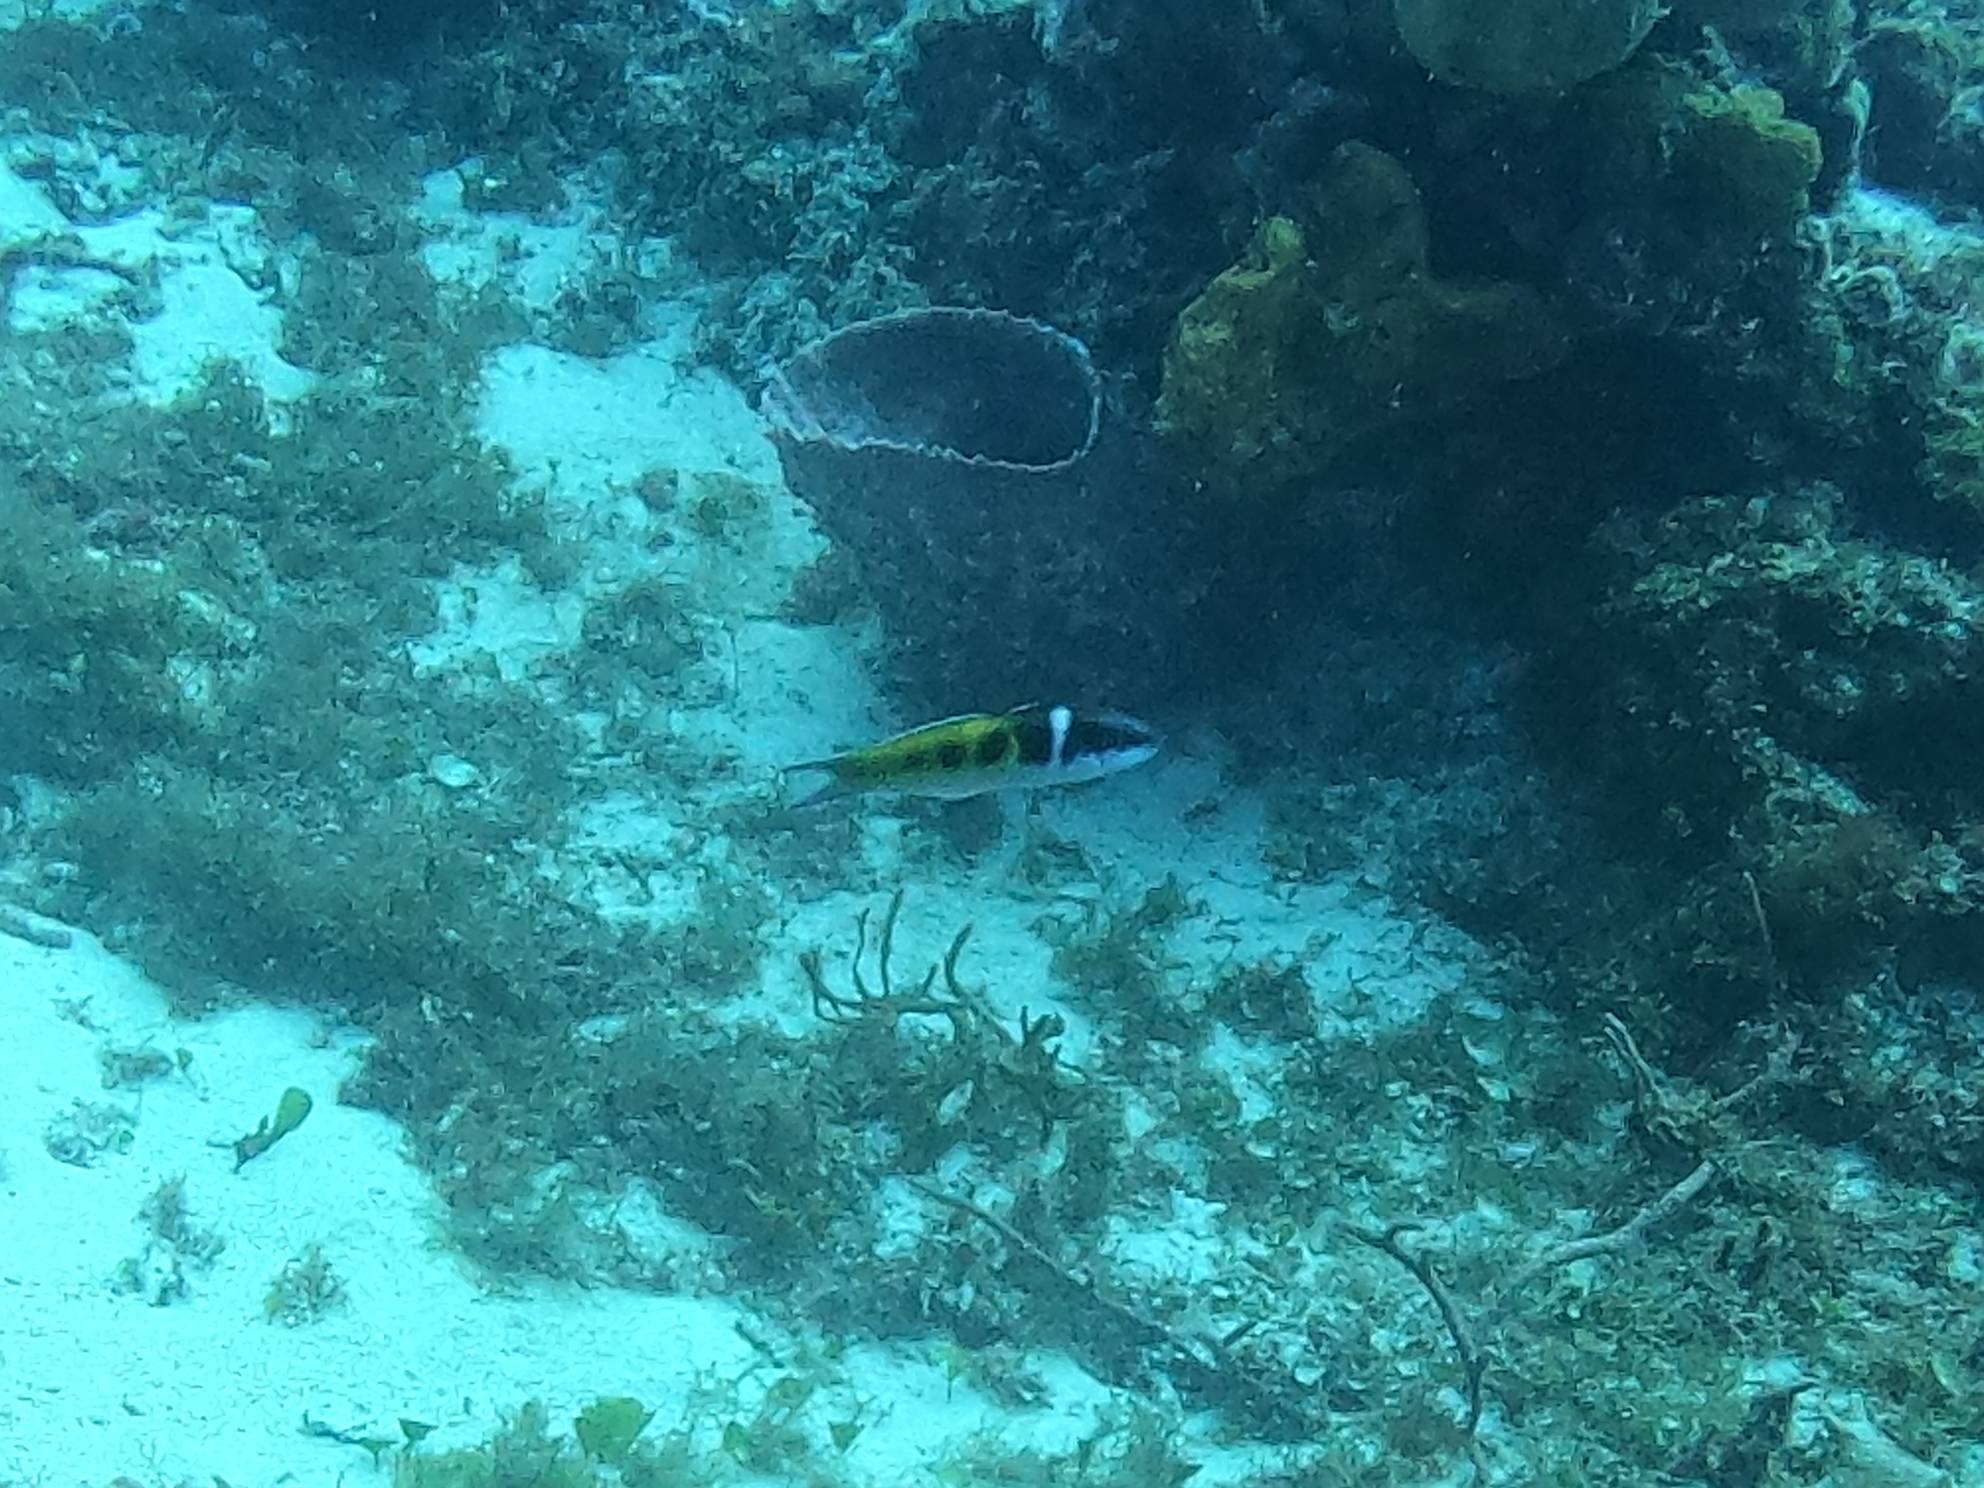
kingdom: Animalia
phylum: Chordata
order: Perciformes
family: Labridae
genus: Thalassoma
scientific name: Thalassoma bifasciatum
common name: Bluehead wrasse
